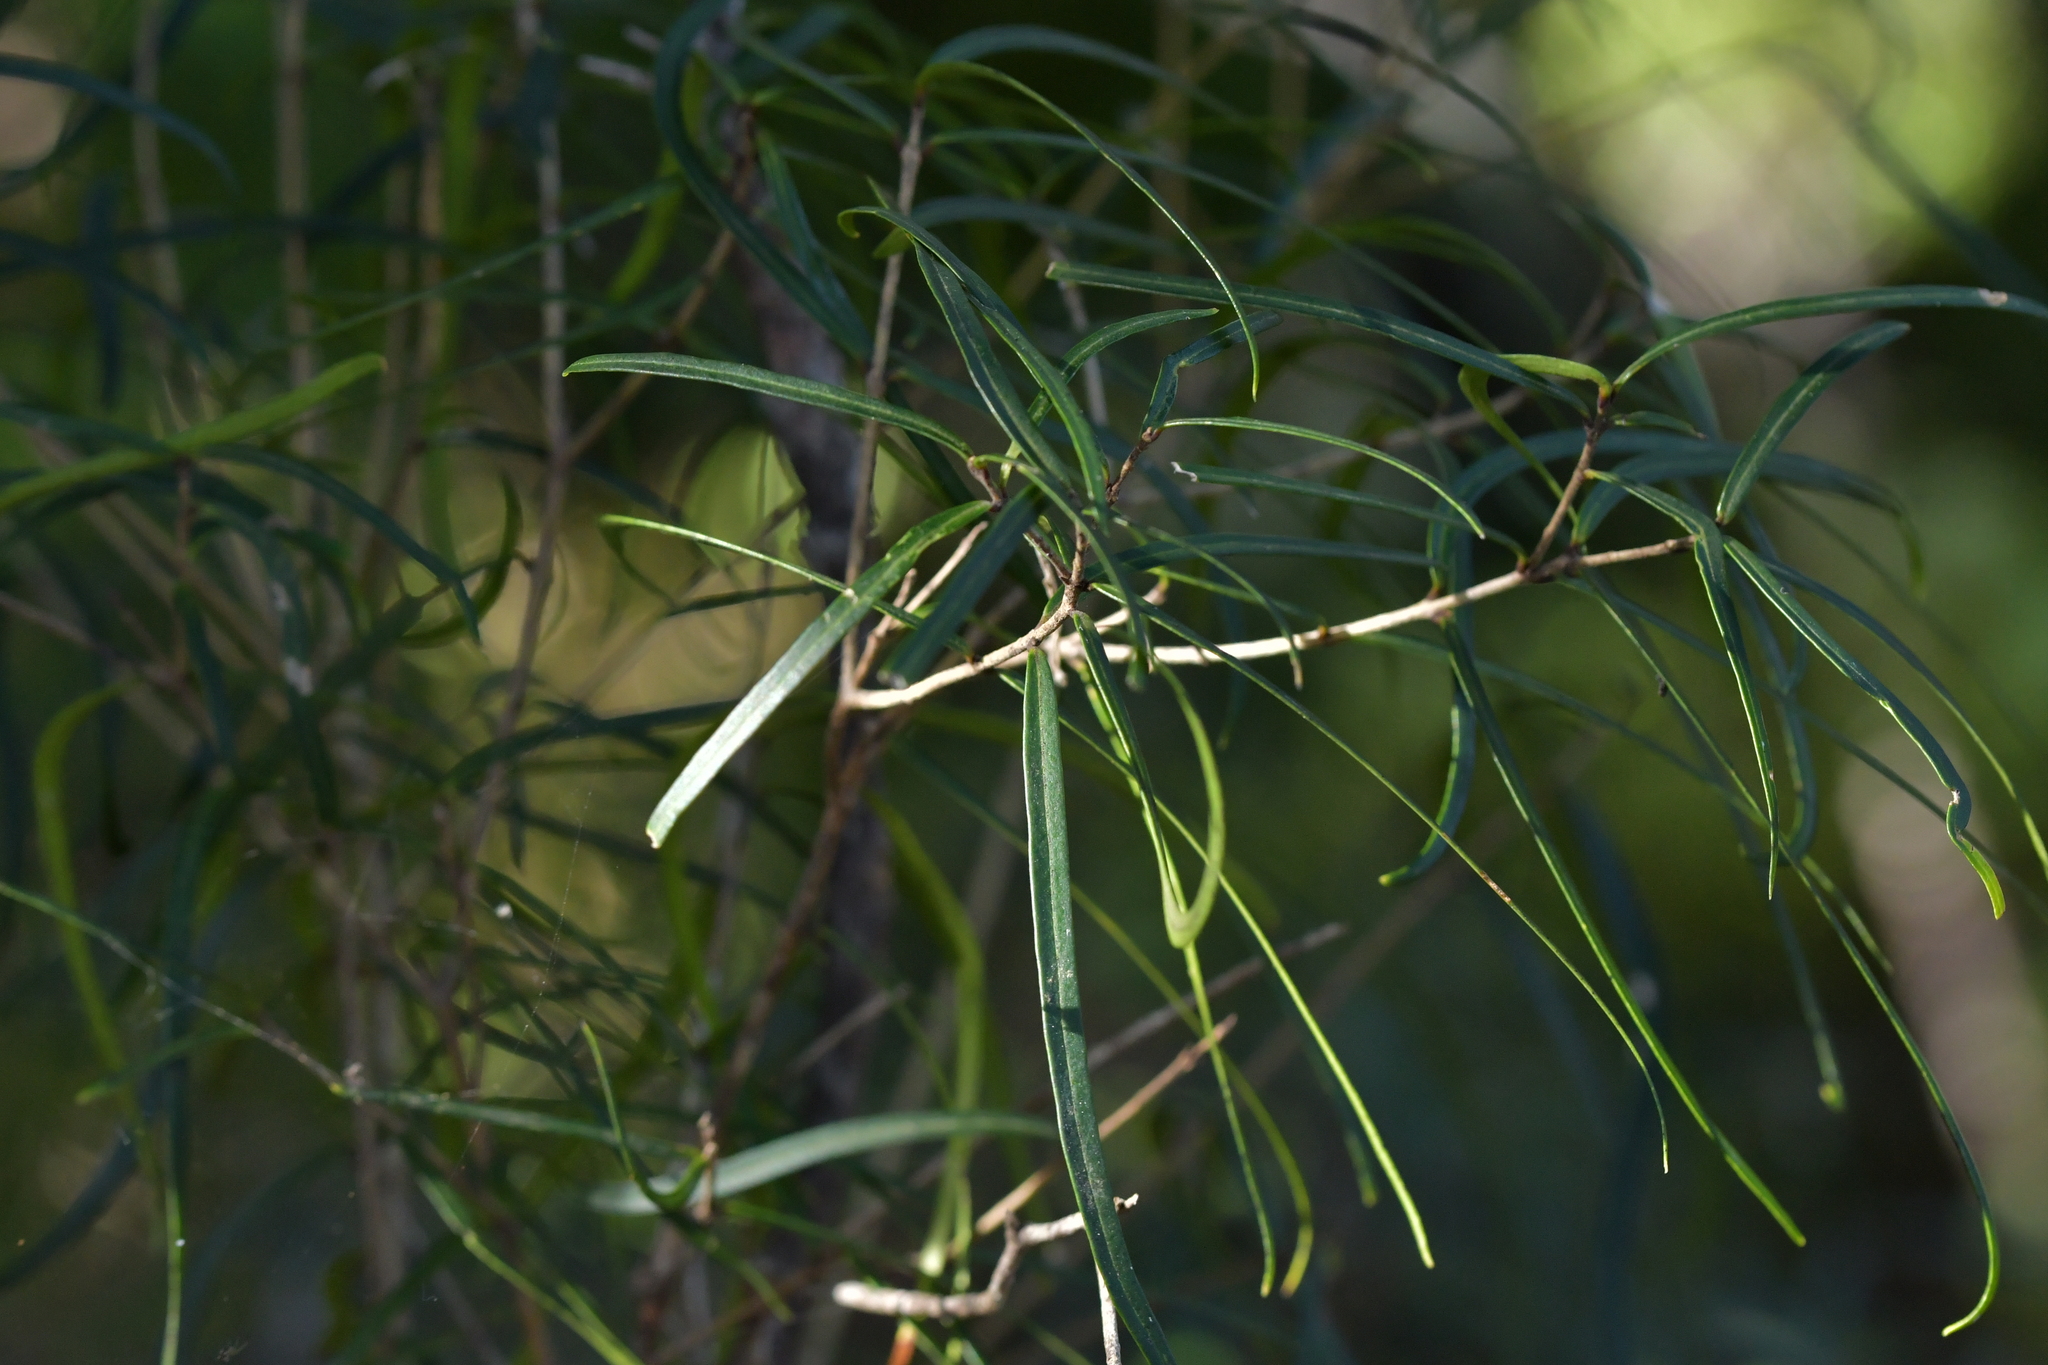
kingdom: Plantae
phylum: Tracheophyta
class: Magnoliopsida
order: Lamiales
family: Oleaceae
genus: Nestegis
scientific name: Nestegis montana
